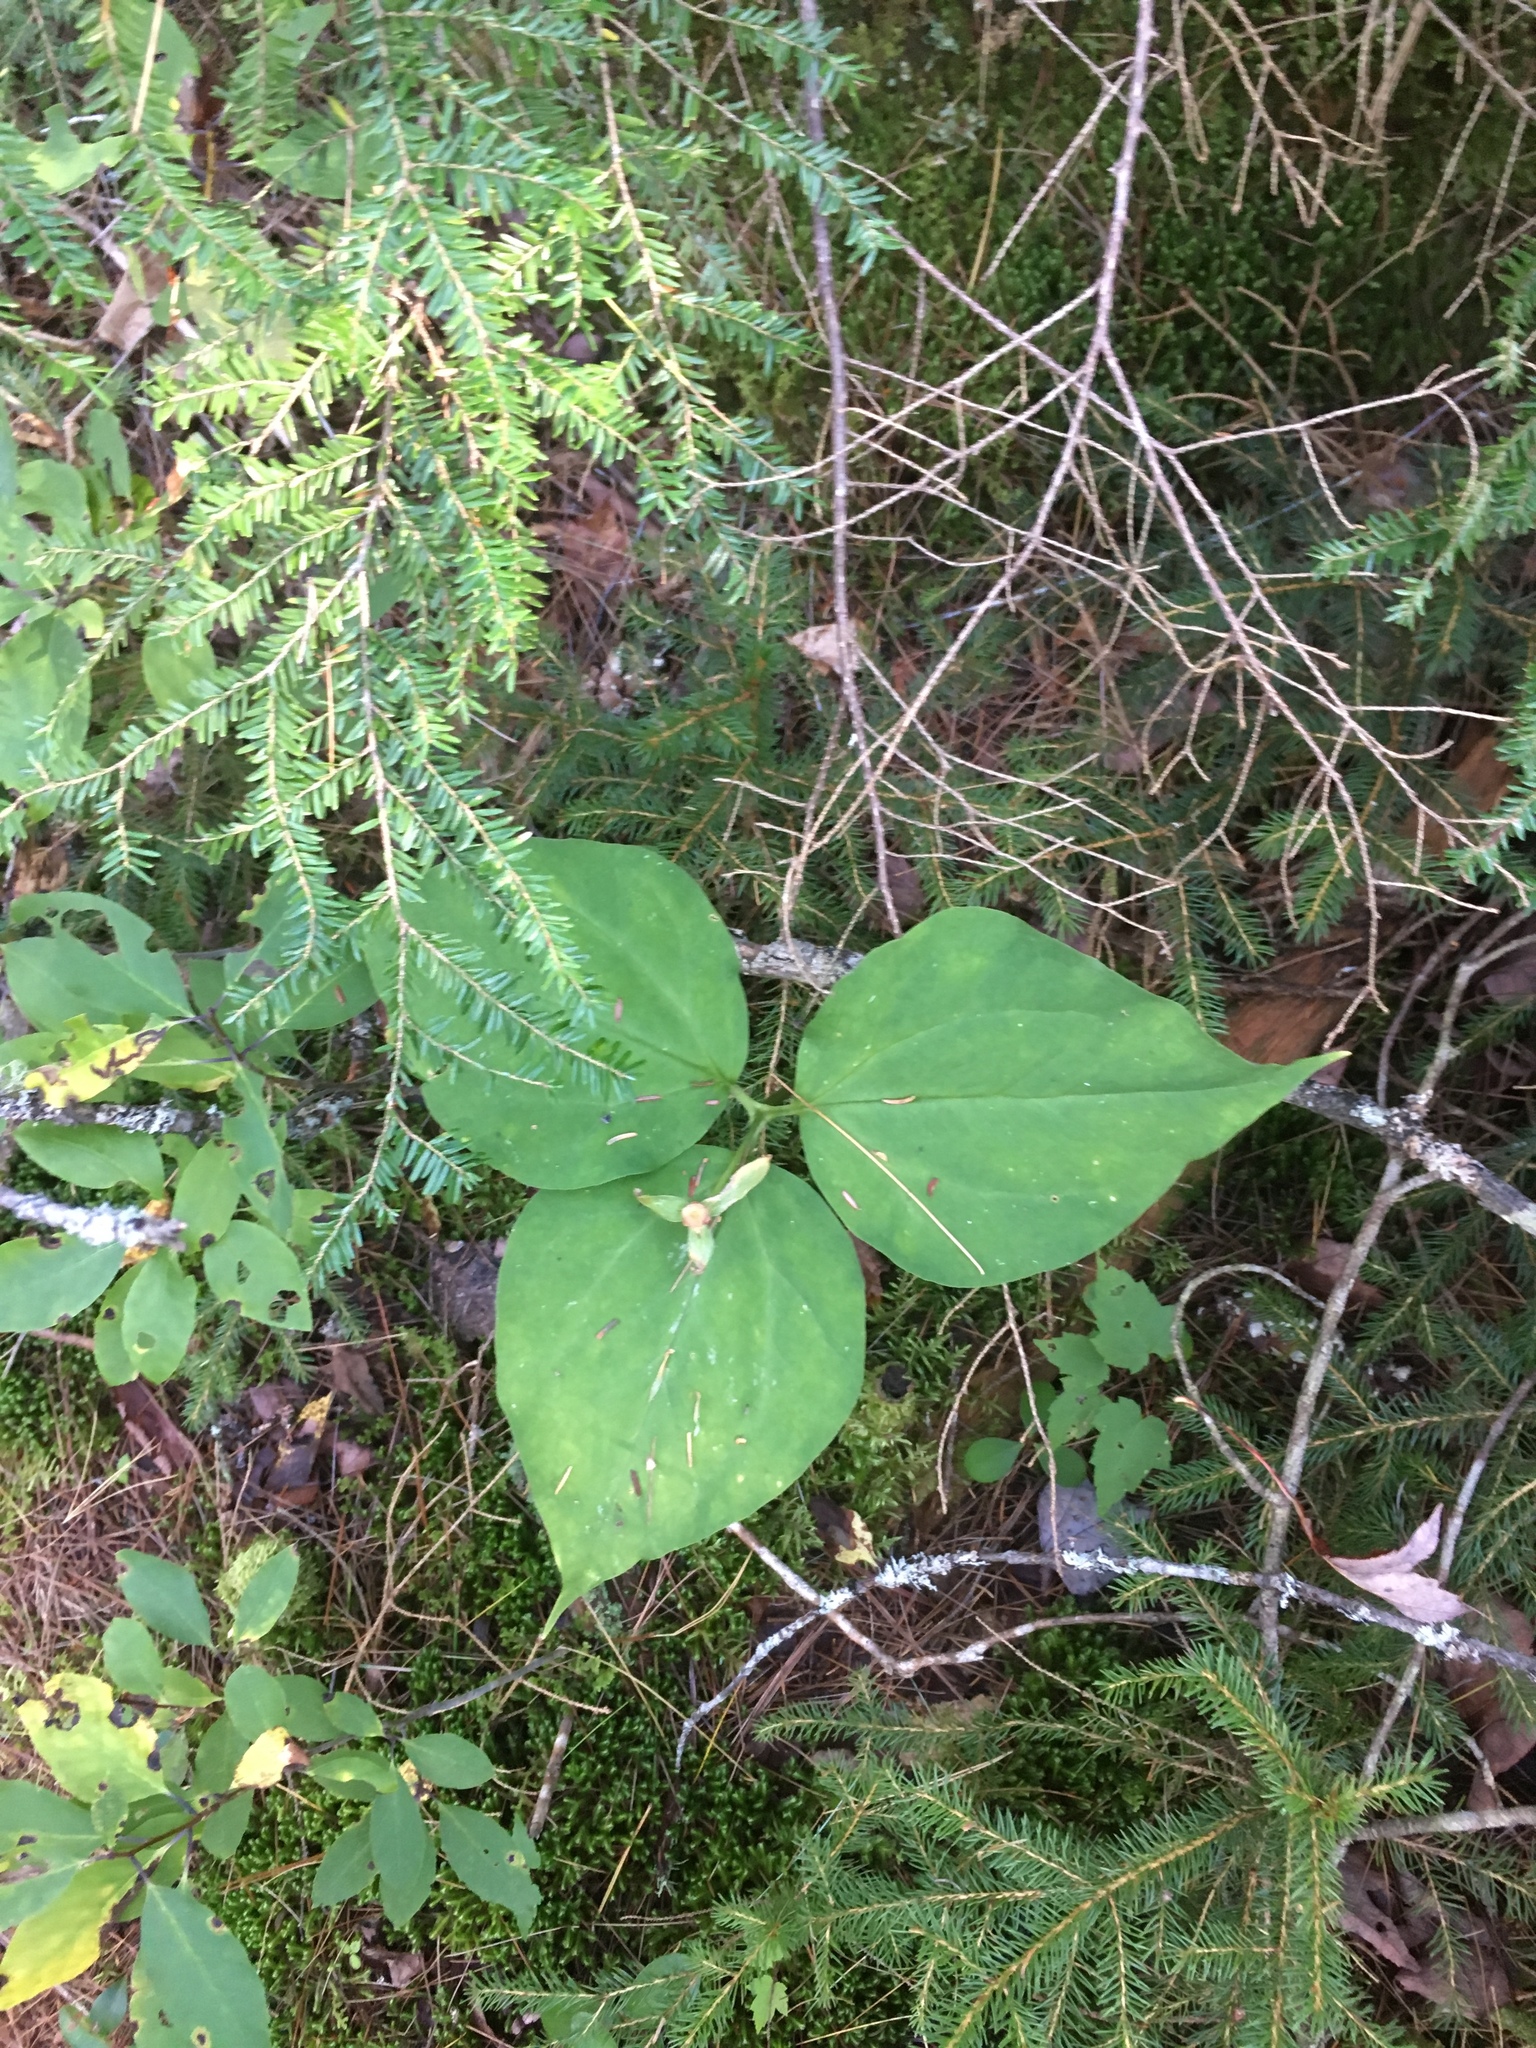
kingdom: Plantae
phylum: Tracheophyta
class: Liliopsida
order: Liliales
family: Melanthiaceae
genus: Trillium
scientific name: Trillium undulatum
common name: Paint trillium
